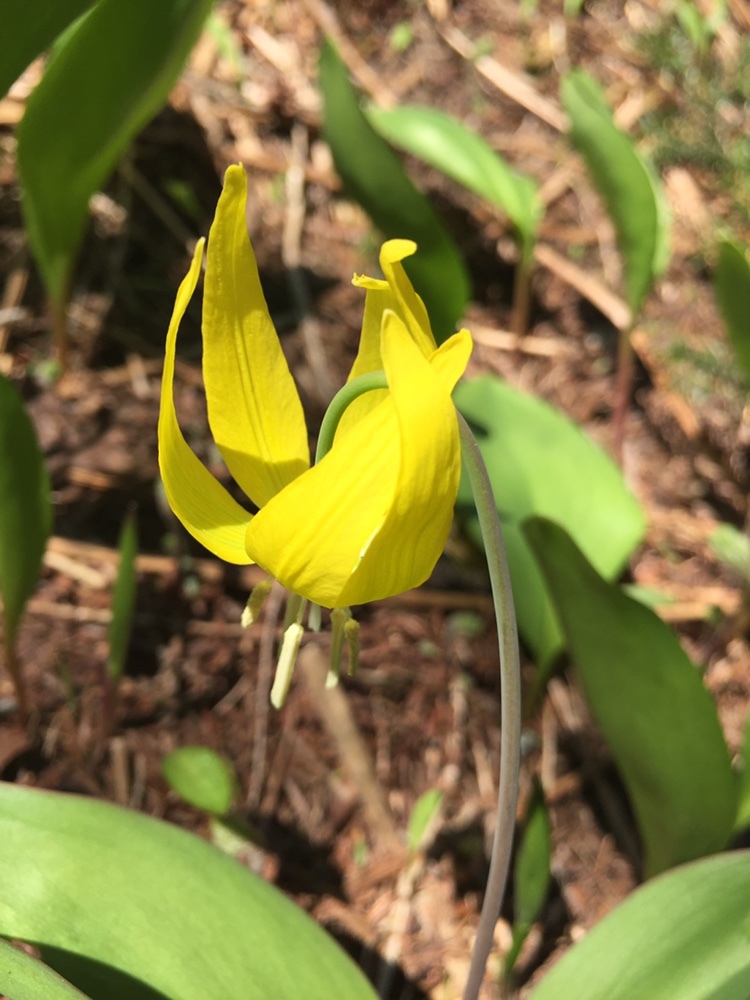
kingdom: Plantae
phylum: Tracheophyta
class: Liliopsida
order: Liliales
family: Liliaceae
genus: Erythronium
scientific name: Erythronium grandiflorum
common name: Avalanche-lily
